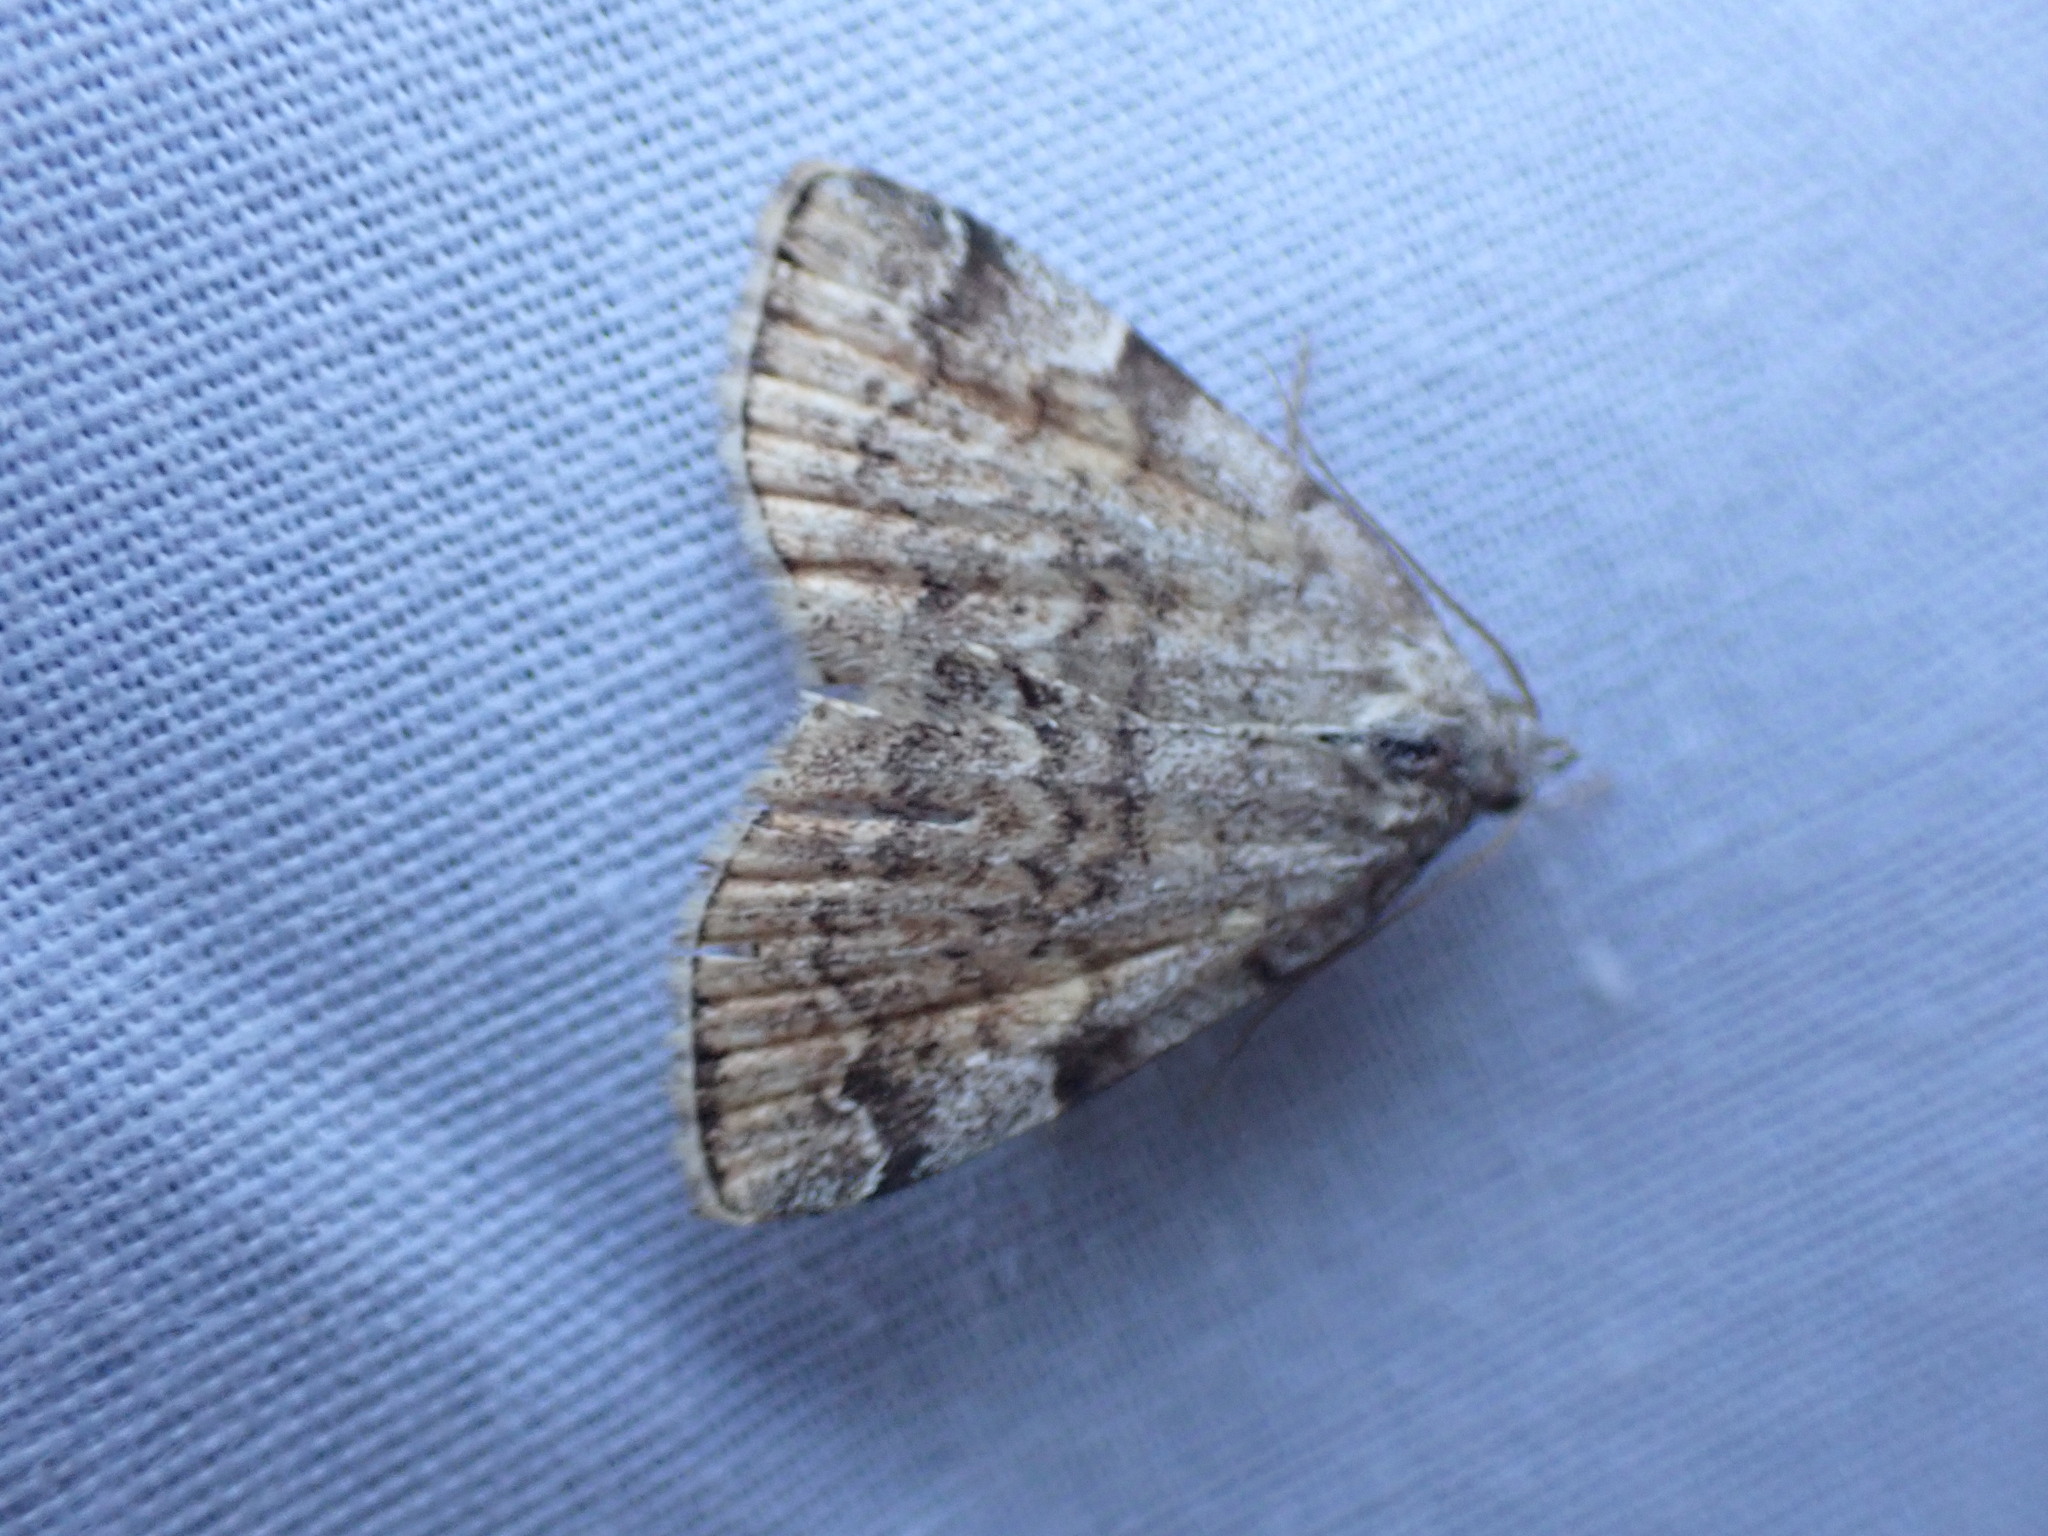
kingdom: Animalia
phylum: Arthropoda
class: Insecta
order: Lepidoptera
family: Erebidae
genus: Idia
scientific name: Idia americalis
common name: American idia moth
